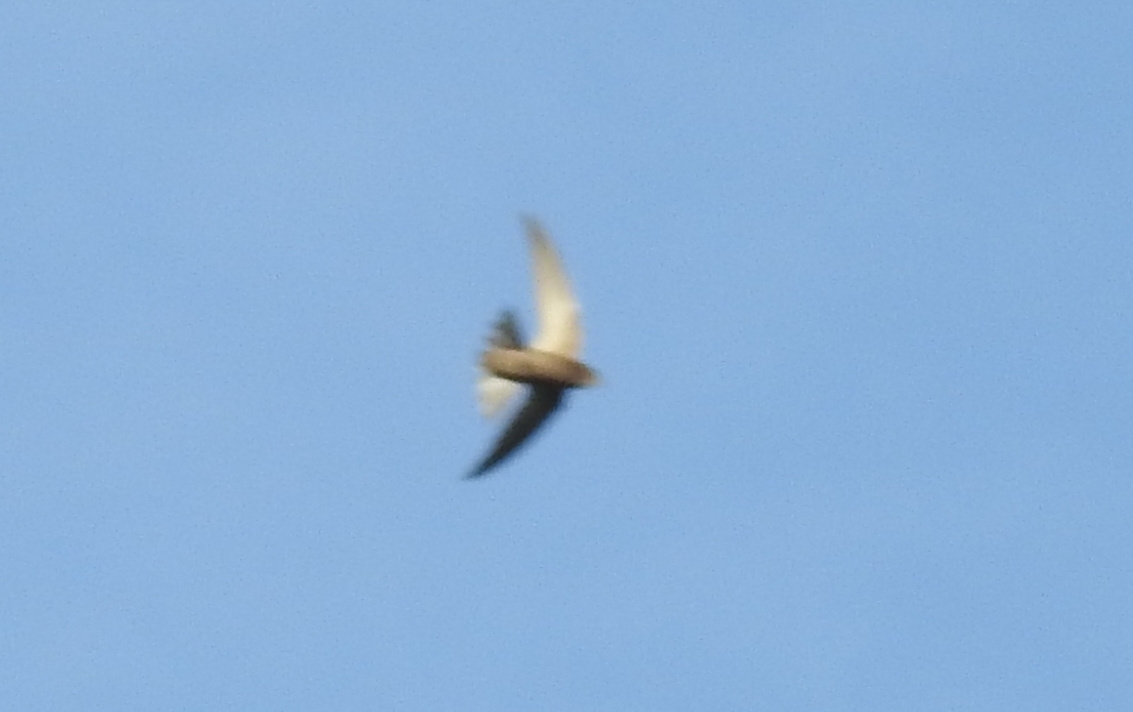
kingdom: Animalia
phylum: Chordata
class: Aves
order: Apodiformes
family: Apodidae
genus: Apus
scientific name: Apus pallidus
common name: Pallid swift
